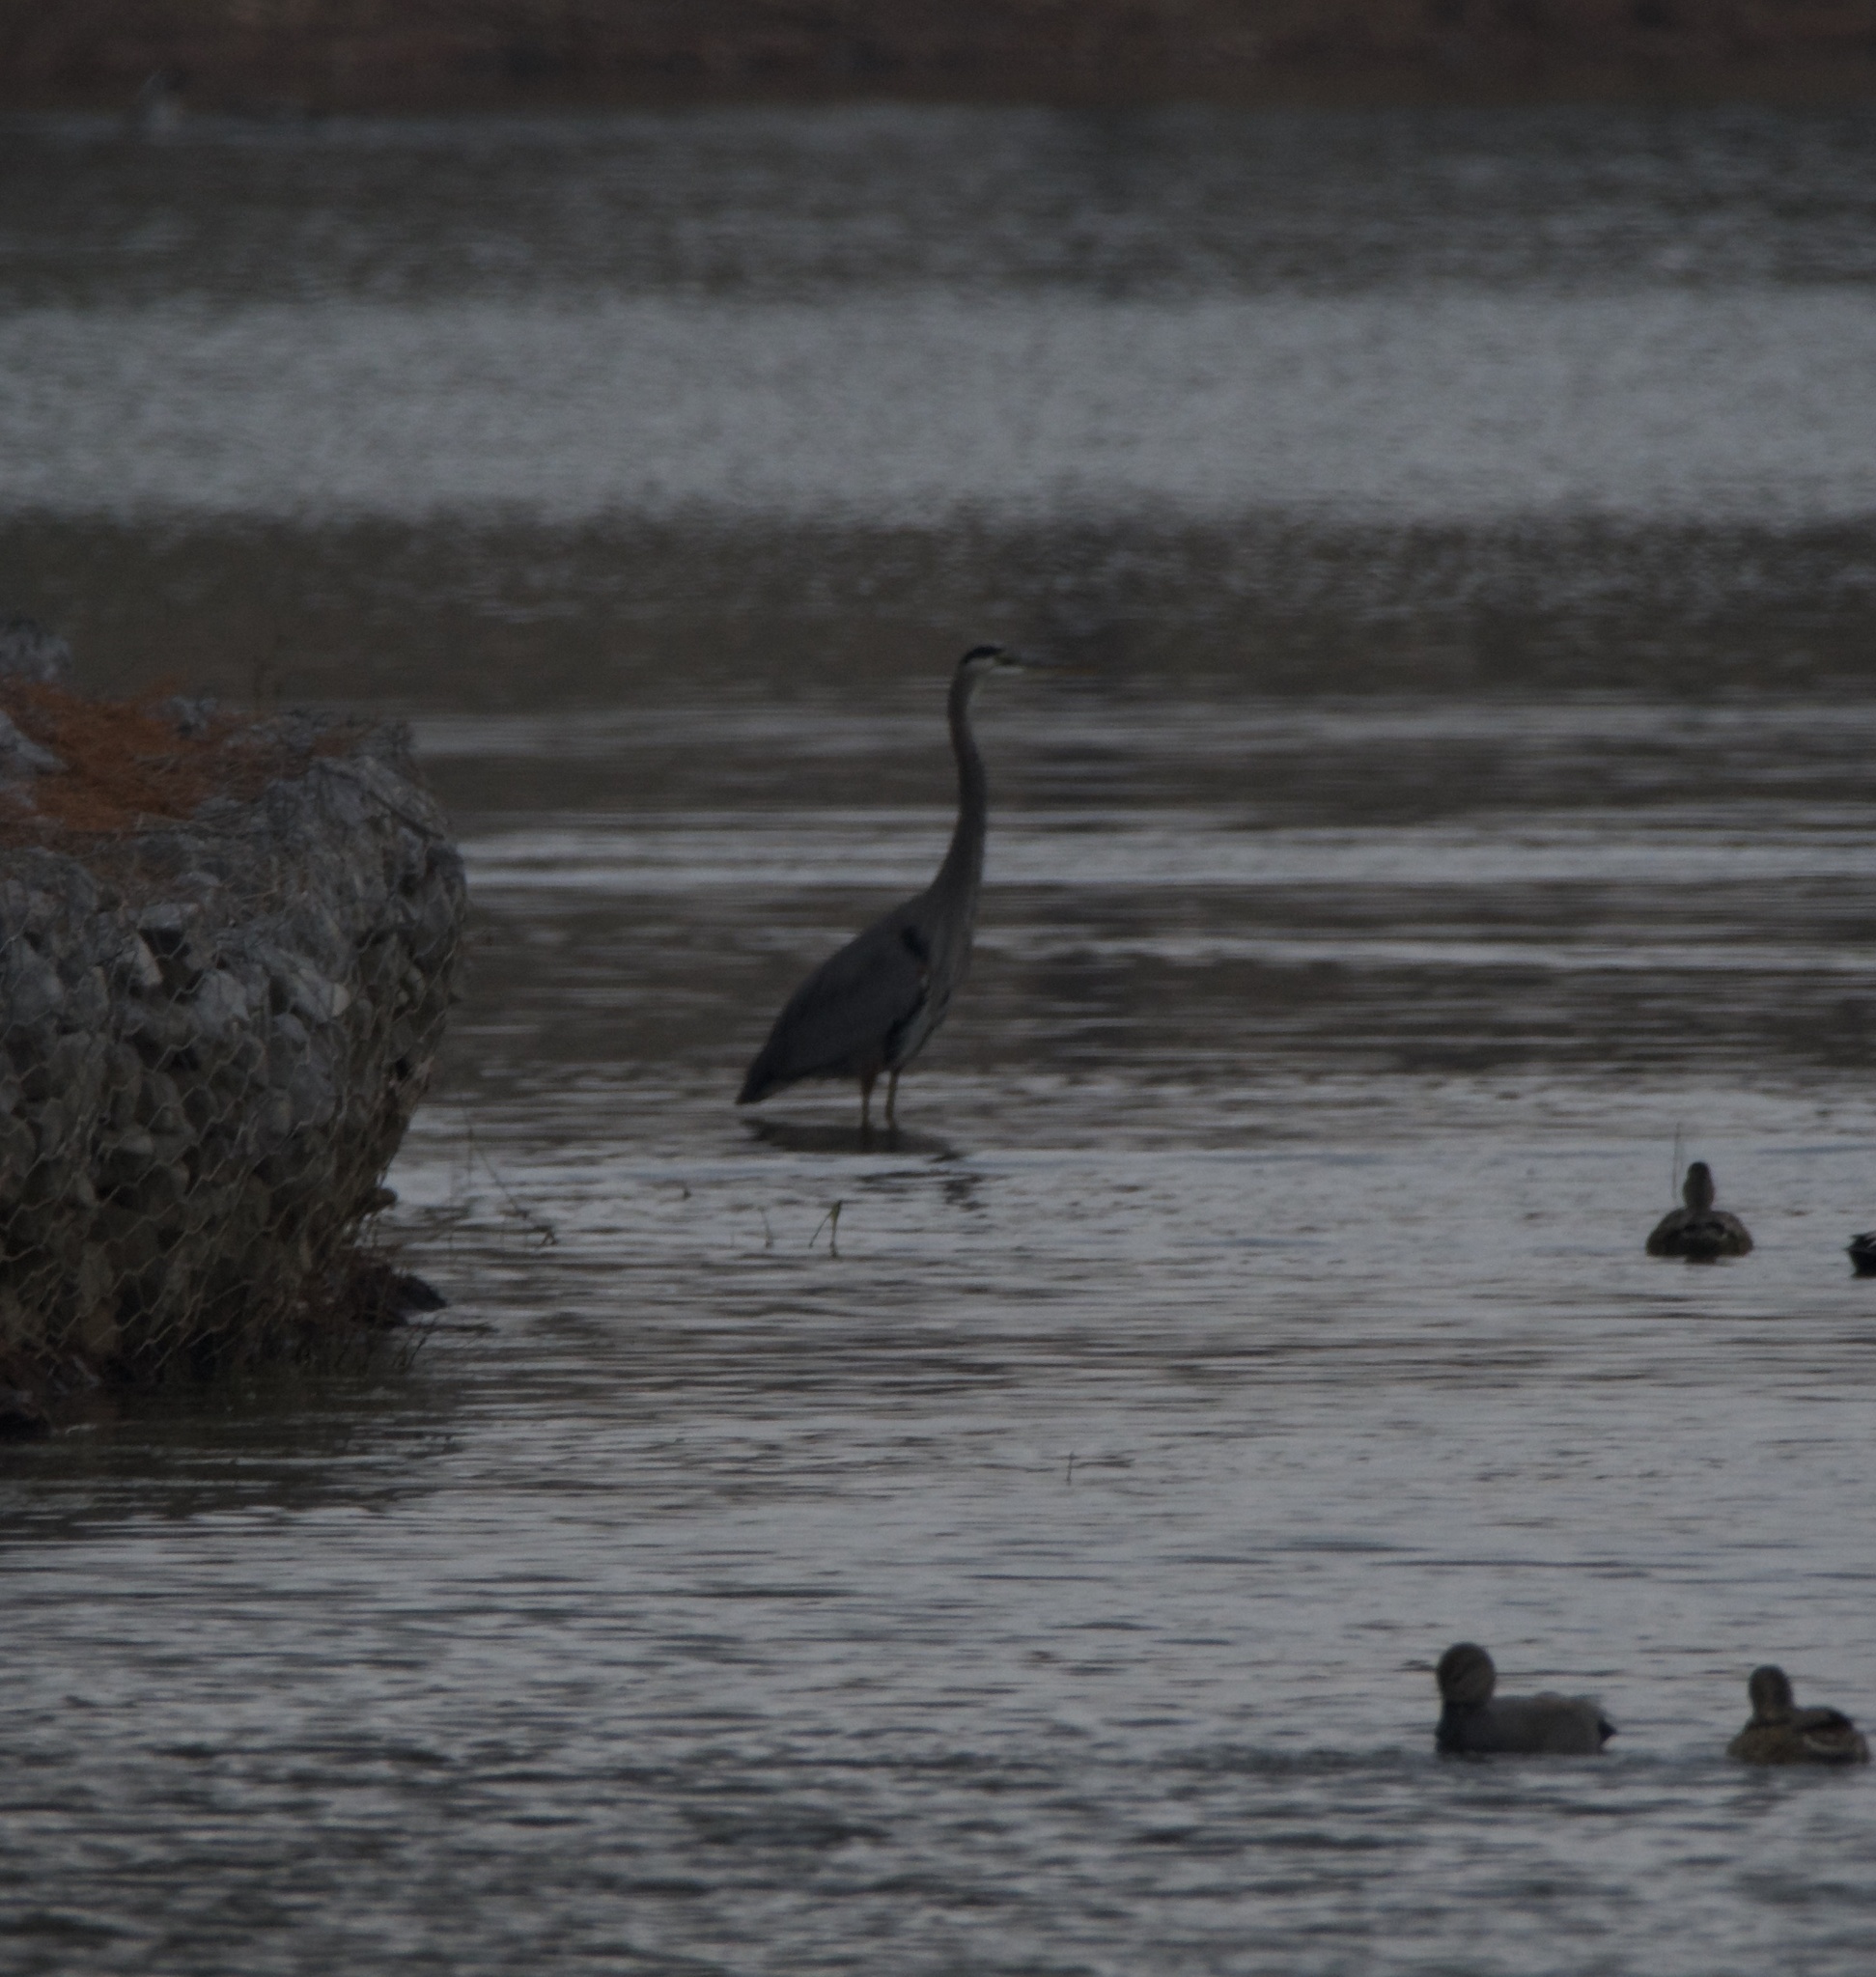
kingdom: Animalia
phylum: Chordata
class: Aves
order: Pelecaniformes
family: Ardeidae
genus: Ardea
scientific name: Ardea herodias
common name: Great blue heron
